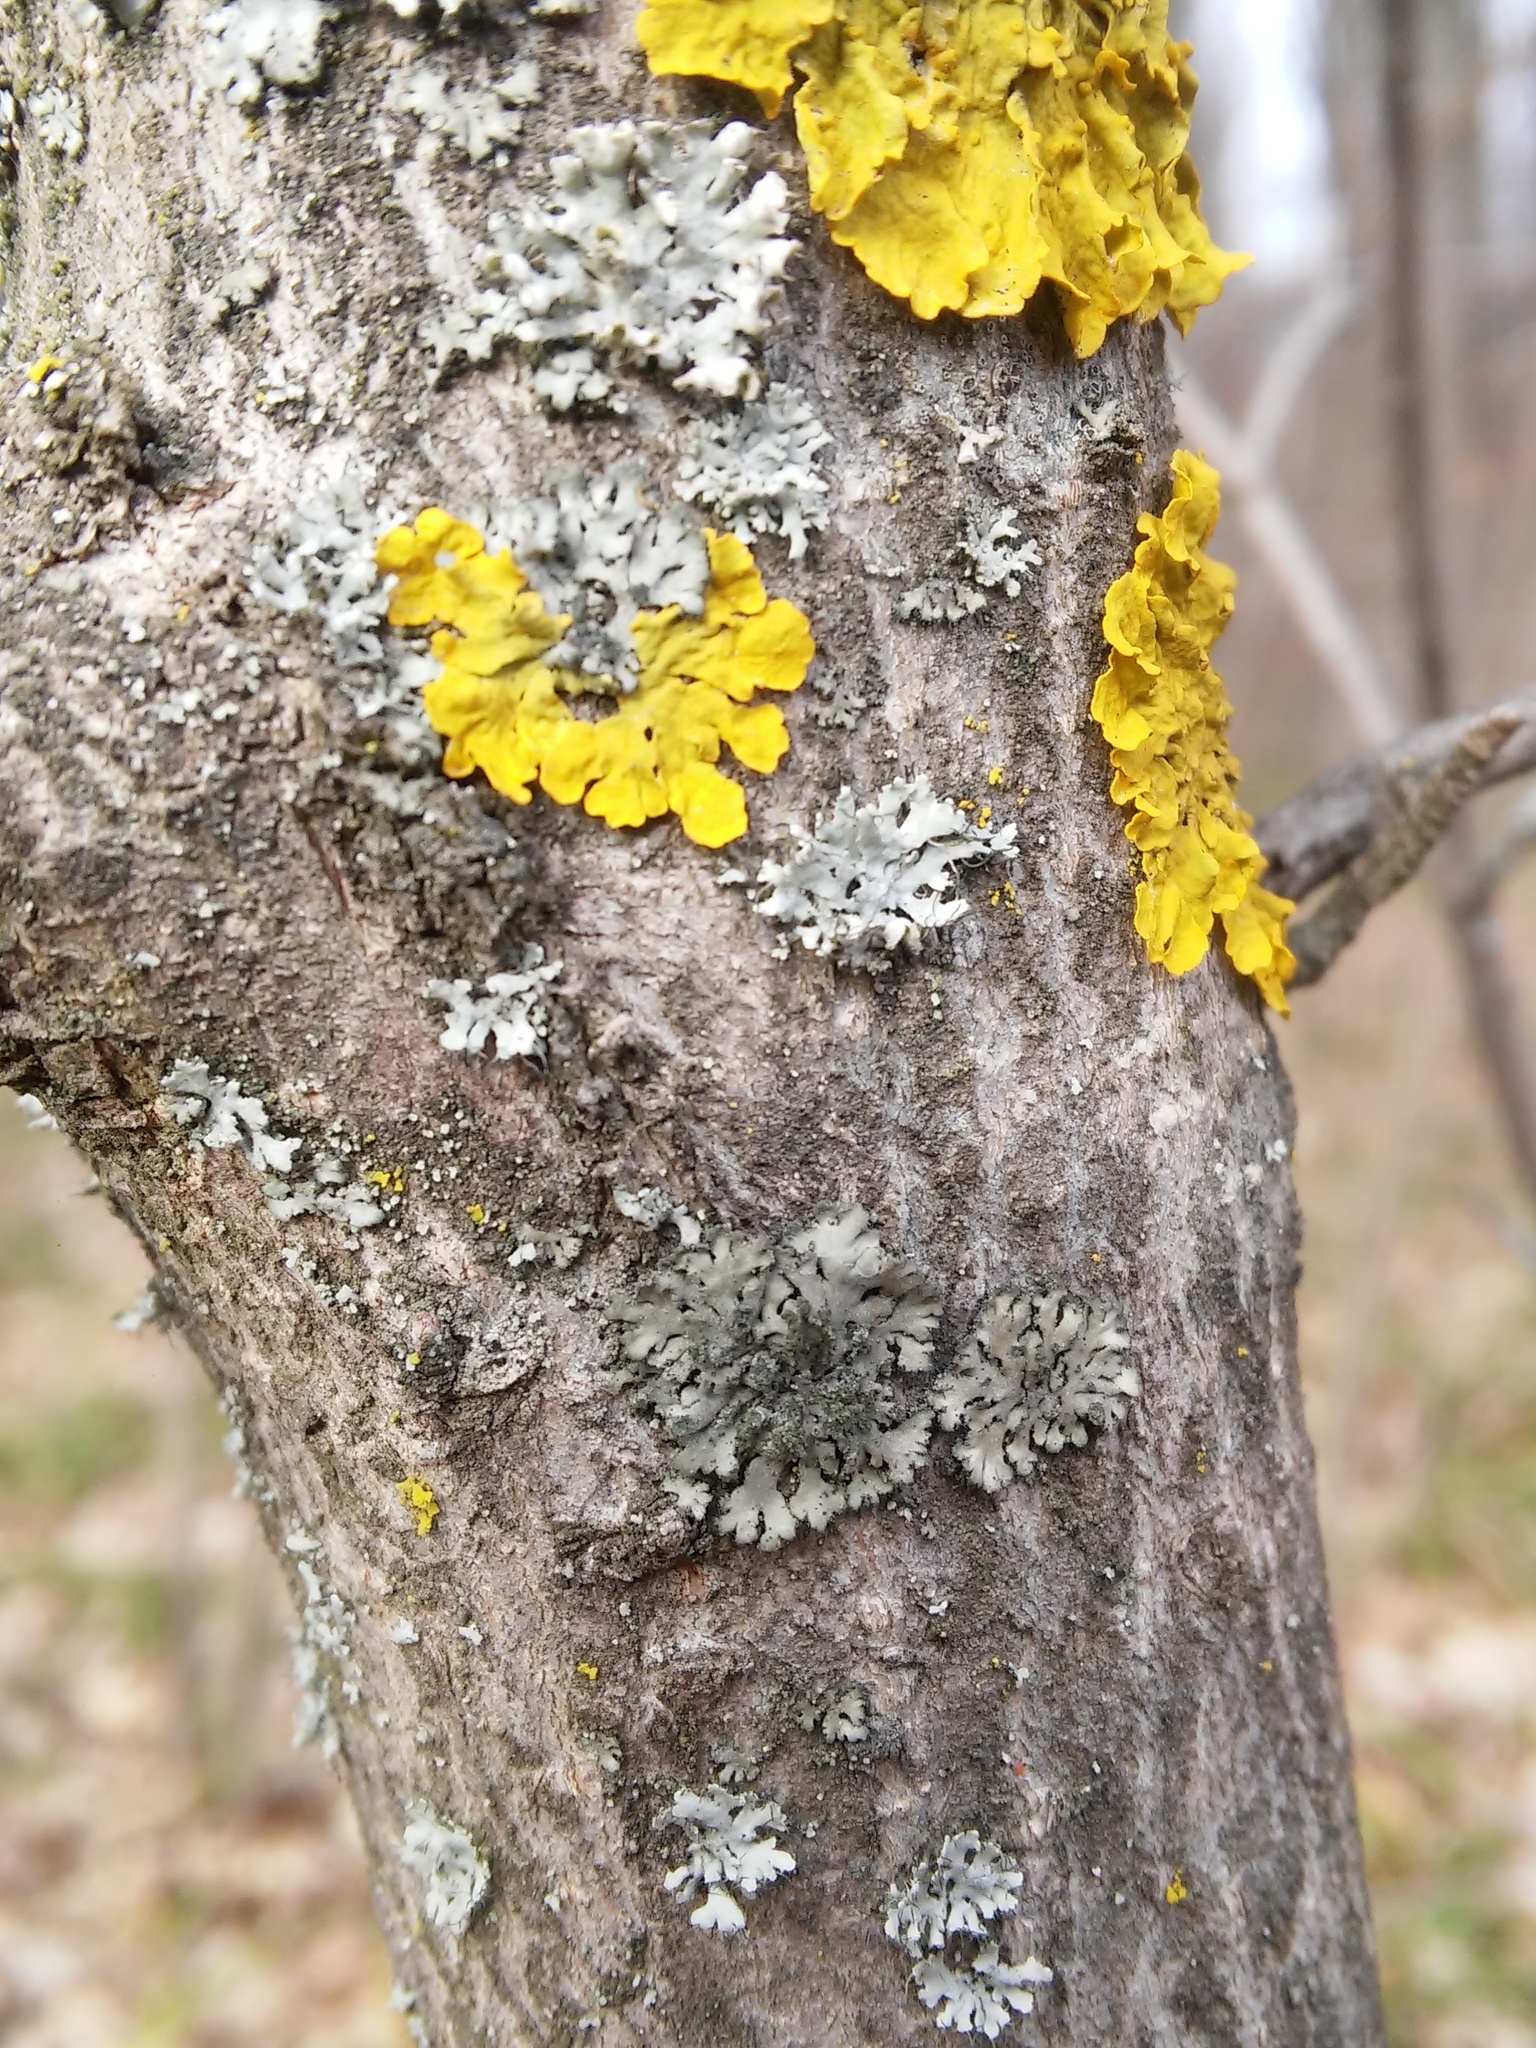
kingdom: Fungi
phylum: Ascomycota
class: Lecanoromycetes
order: Caliciales
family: Physciaceae
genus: Phaeophyscia
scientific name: Phaeophyscia orbicularis
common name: Mealy shadow lichen
